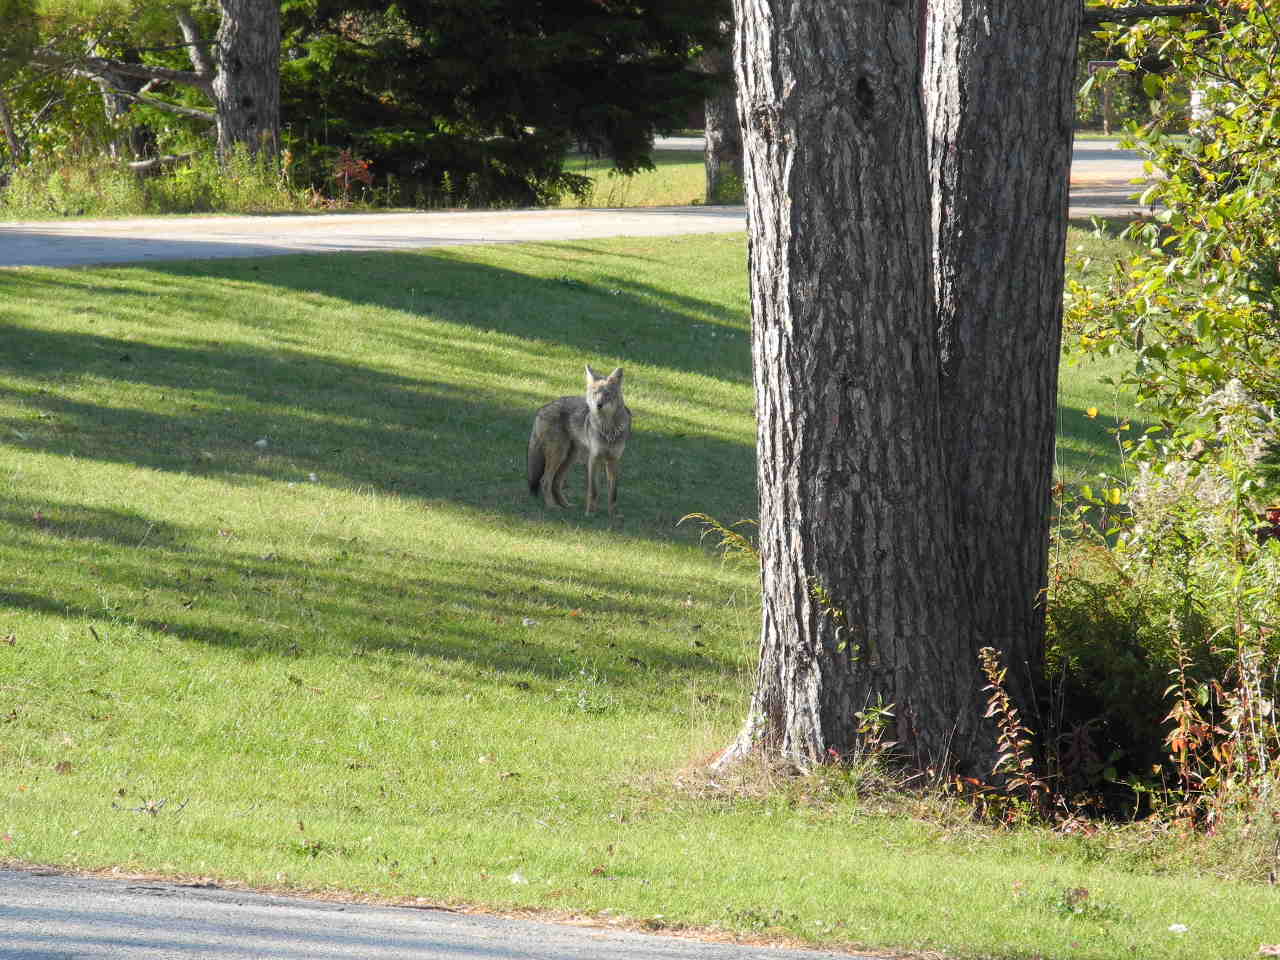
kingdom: Animalia
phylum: Chordata
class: Mammalia
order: Carnivora
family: Canidae
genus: Canis
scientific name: Canis latrans
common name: Coyote
